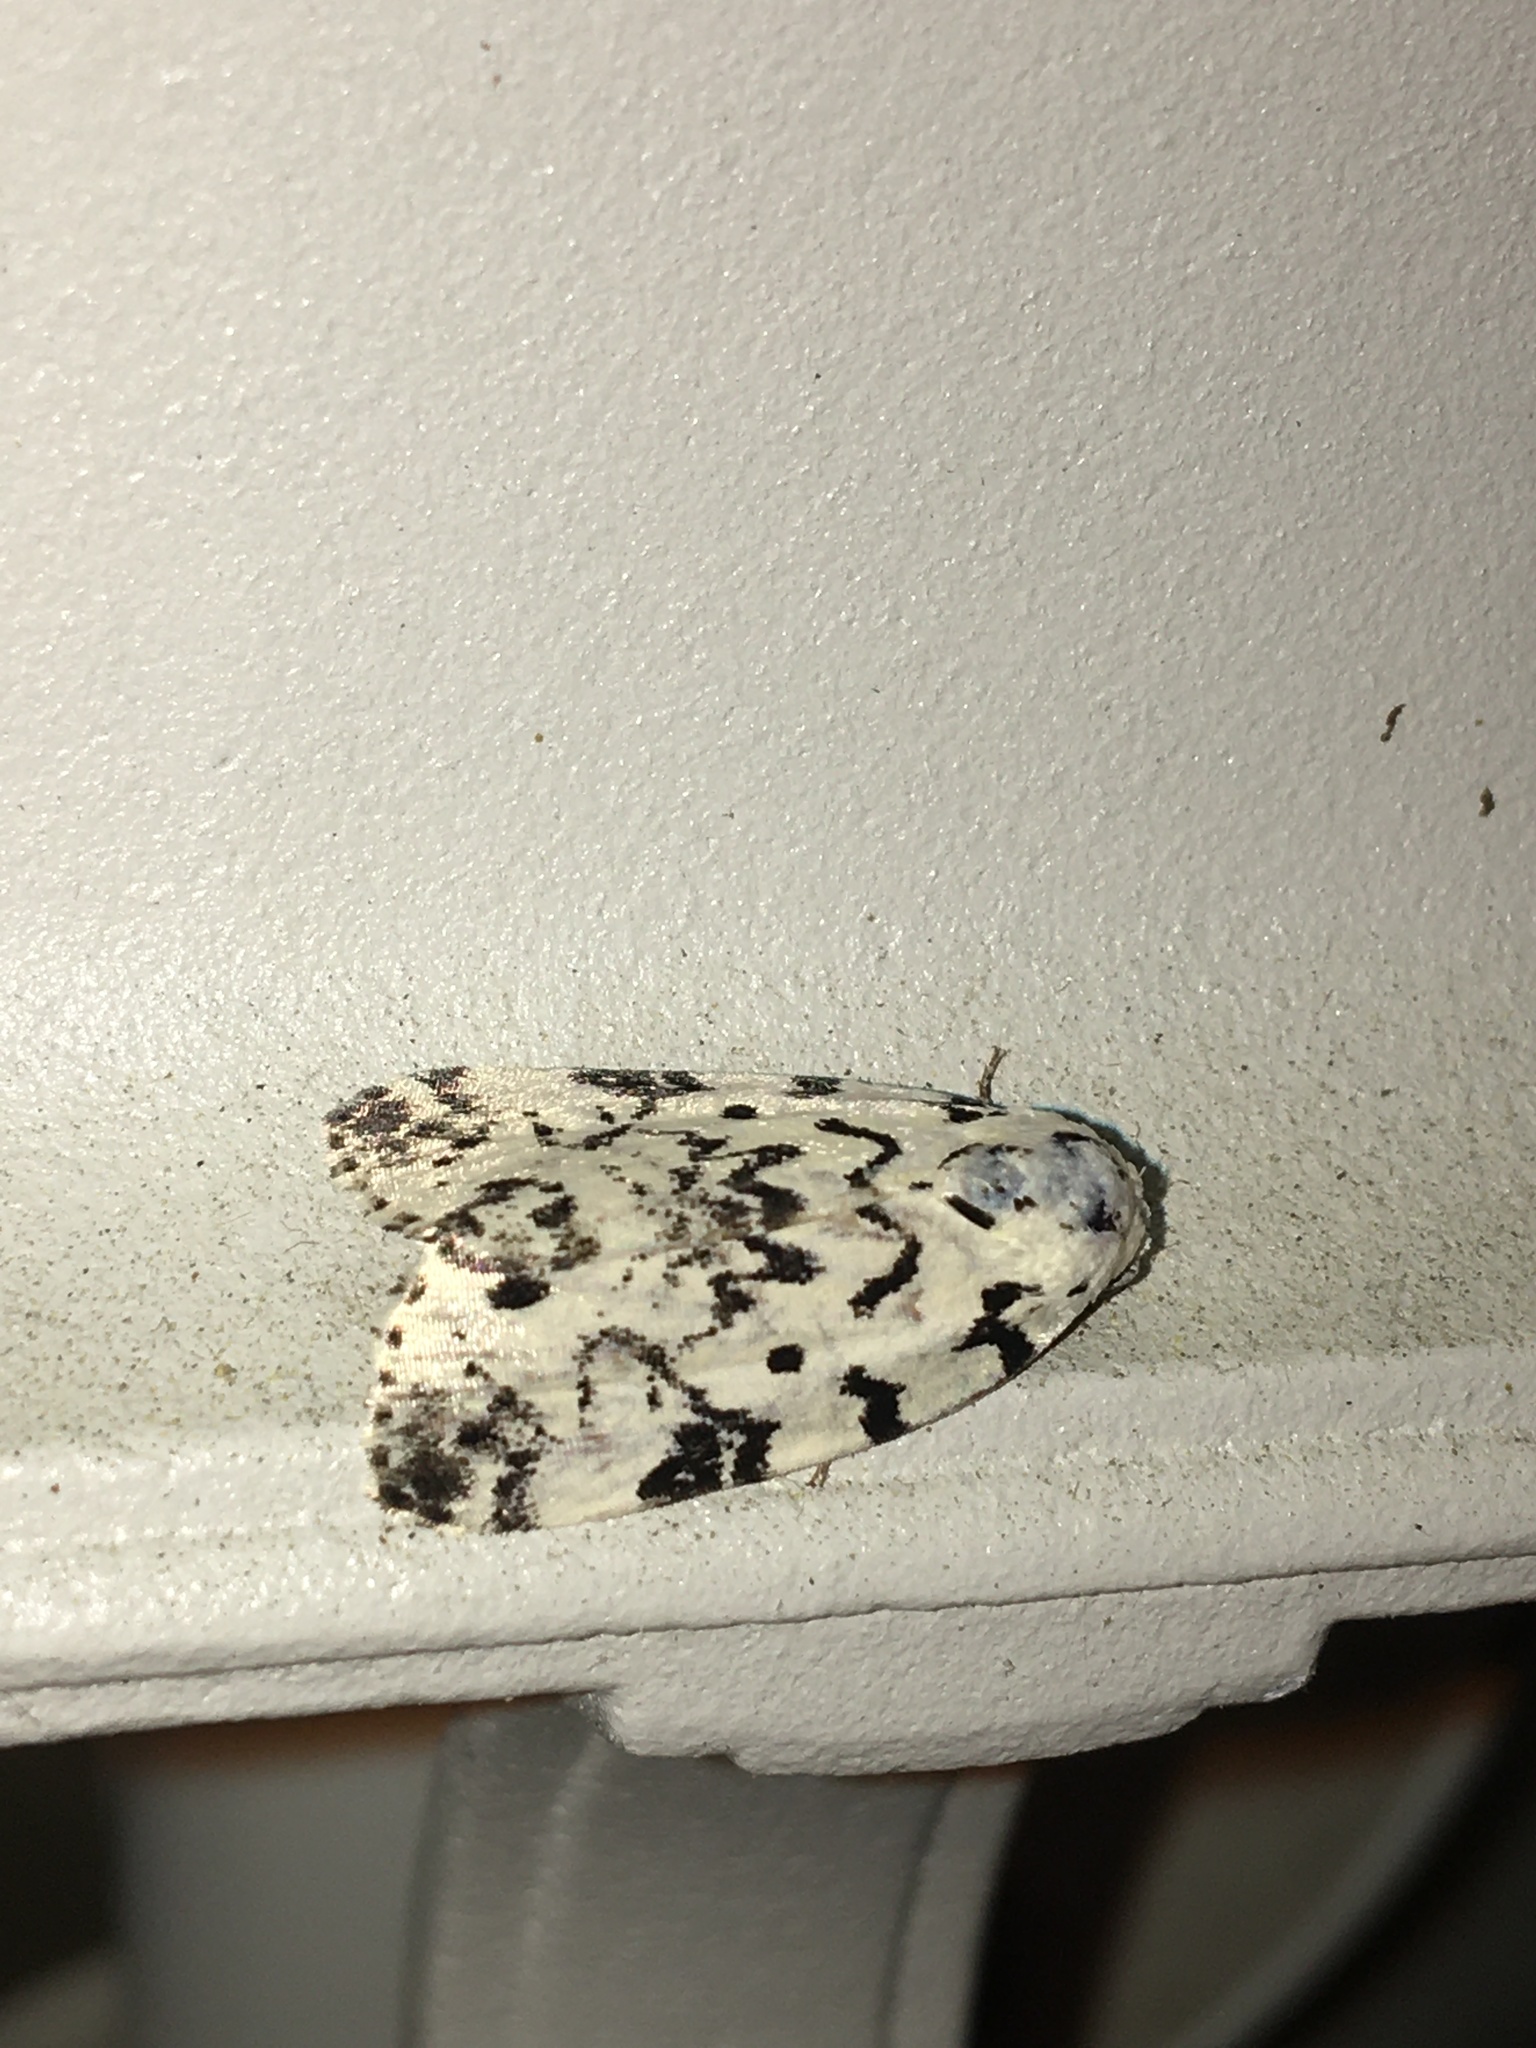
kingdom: Animalia
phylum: Arthropoda
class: Insecta
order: Lepidoptera
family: Noctuidae
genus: Polygrammate
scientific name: Polygrammate hebraeicum
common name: Hebrew moth
